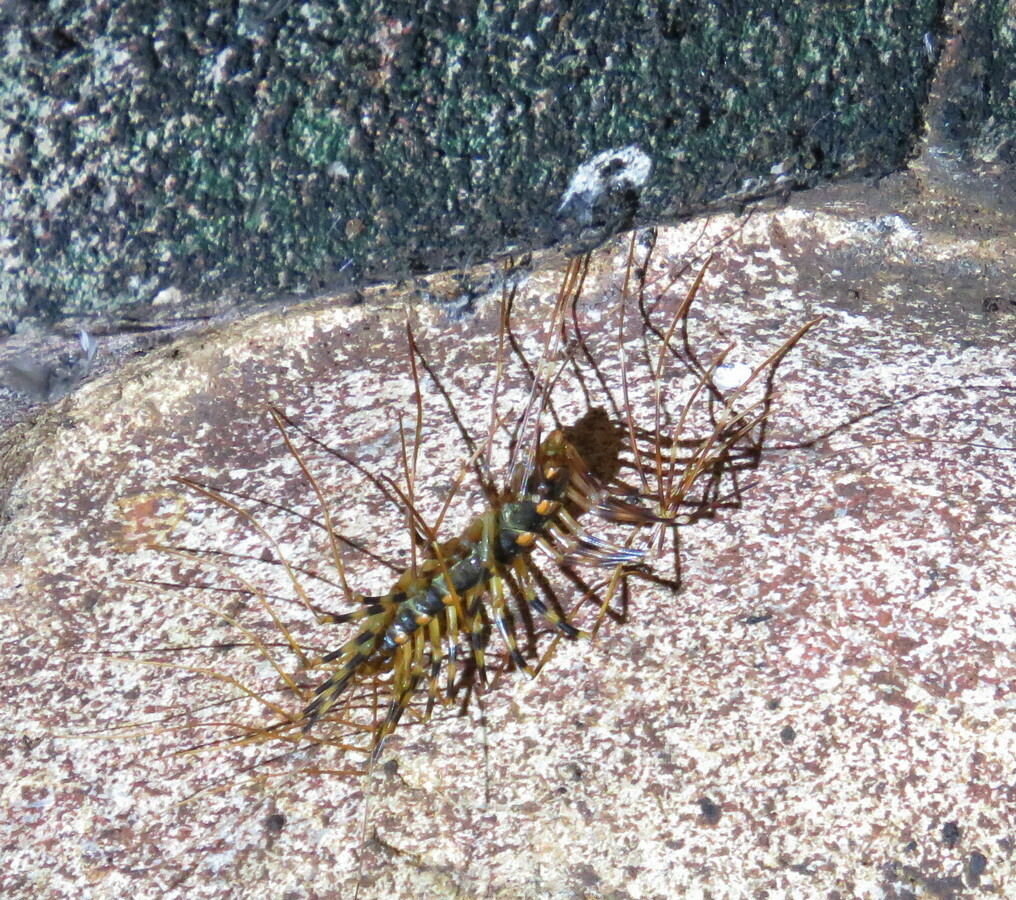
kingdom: Animalia
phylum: Arthropoda
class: Chilopoda
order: Scutigeromorpha
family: Scutigeridae
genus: Thereuopoda
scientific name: Thereuopoda longicornis
